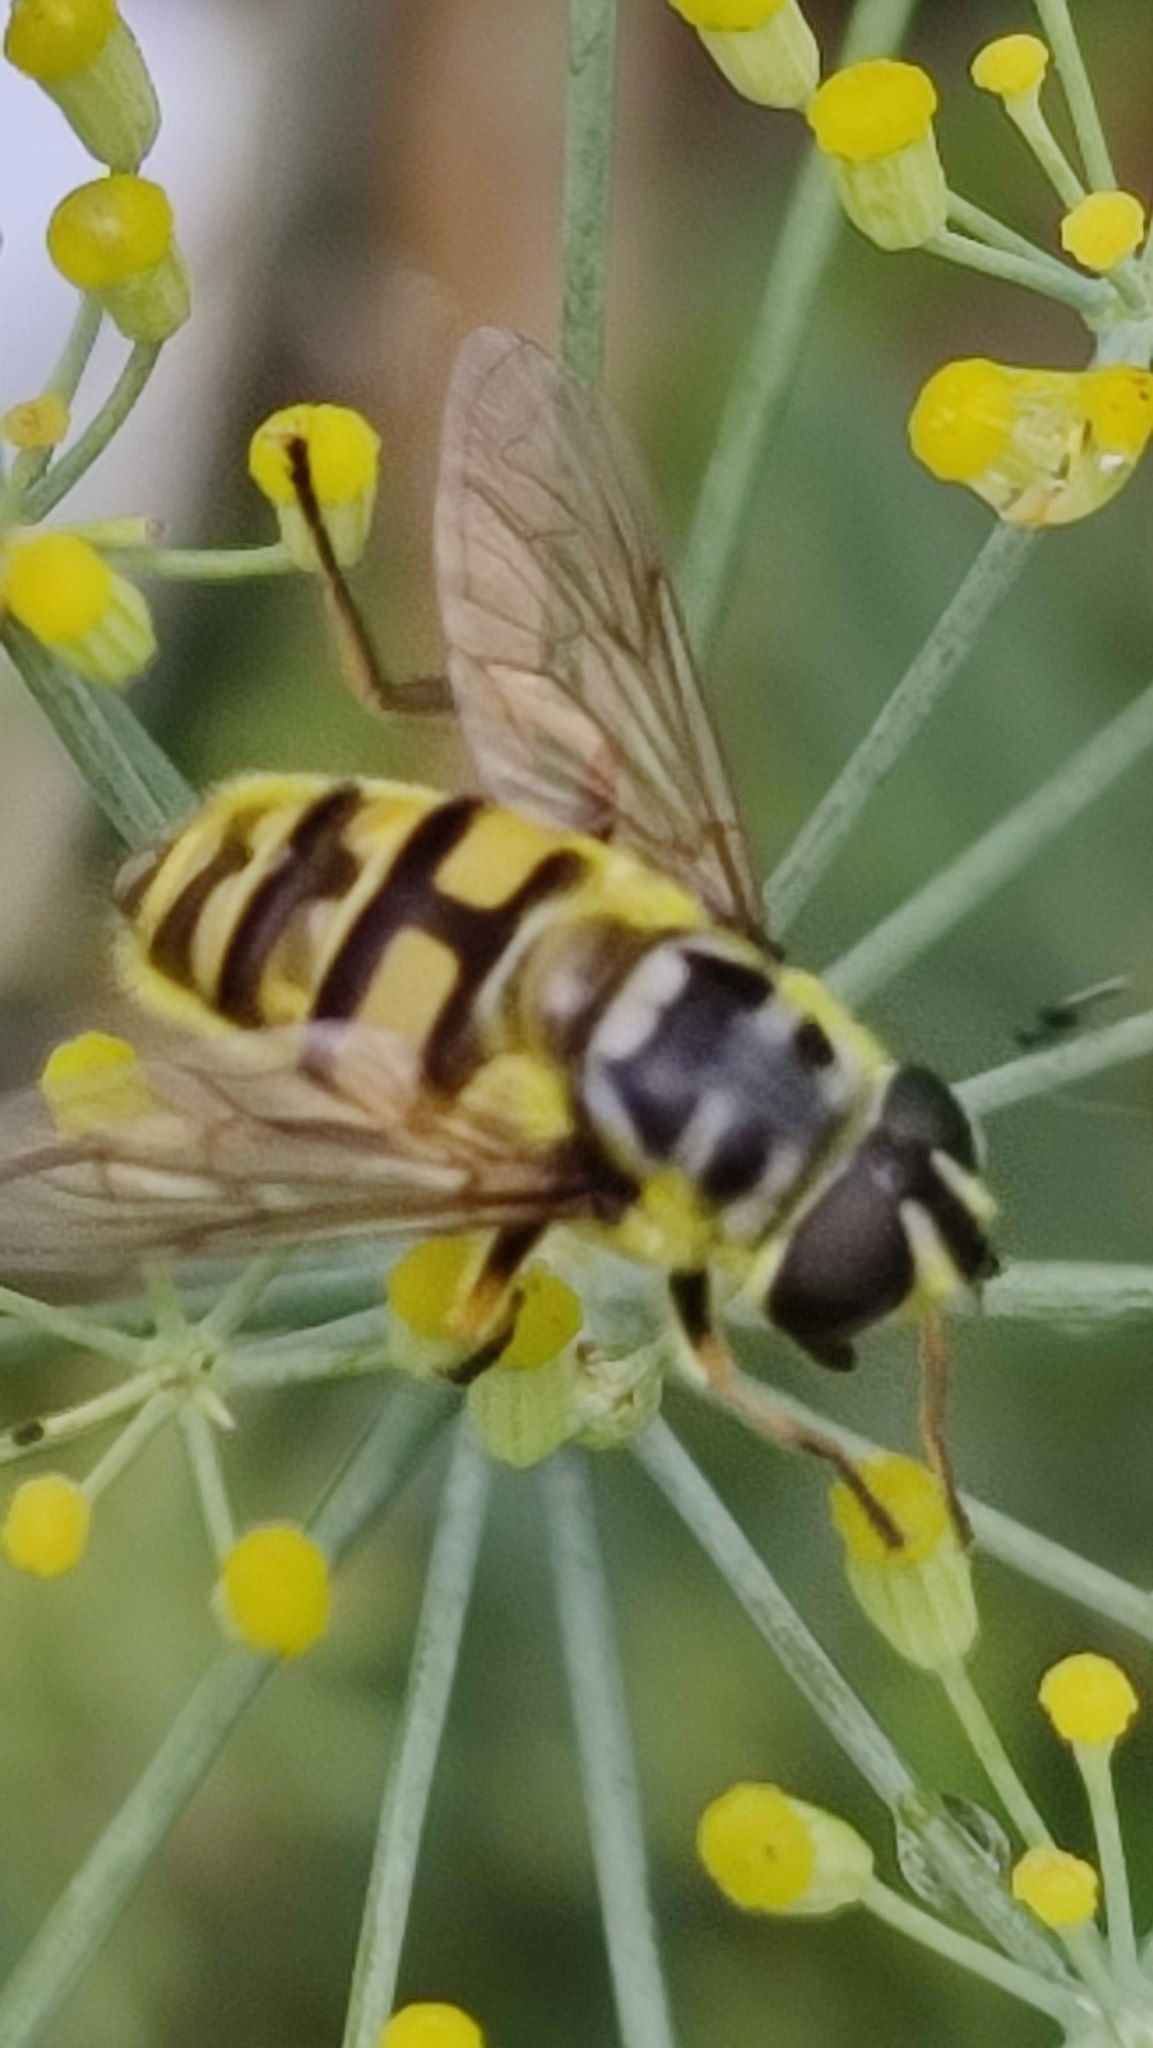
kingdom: Animalia
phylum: Arthropoda
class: Insecta
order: Diptera
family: Syrphidae
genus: Myathropa
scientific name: Myathropa florea
